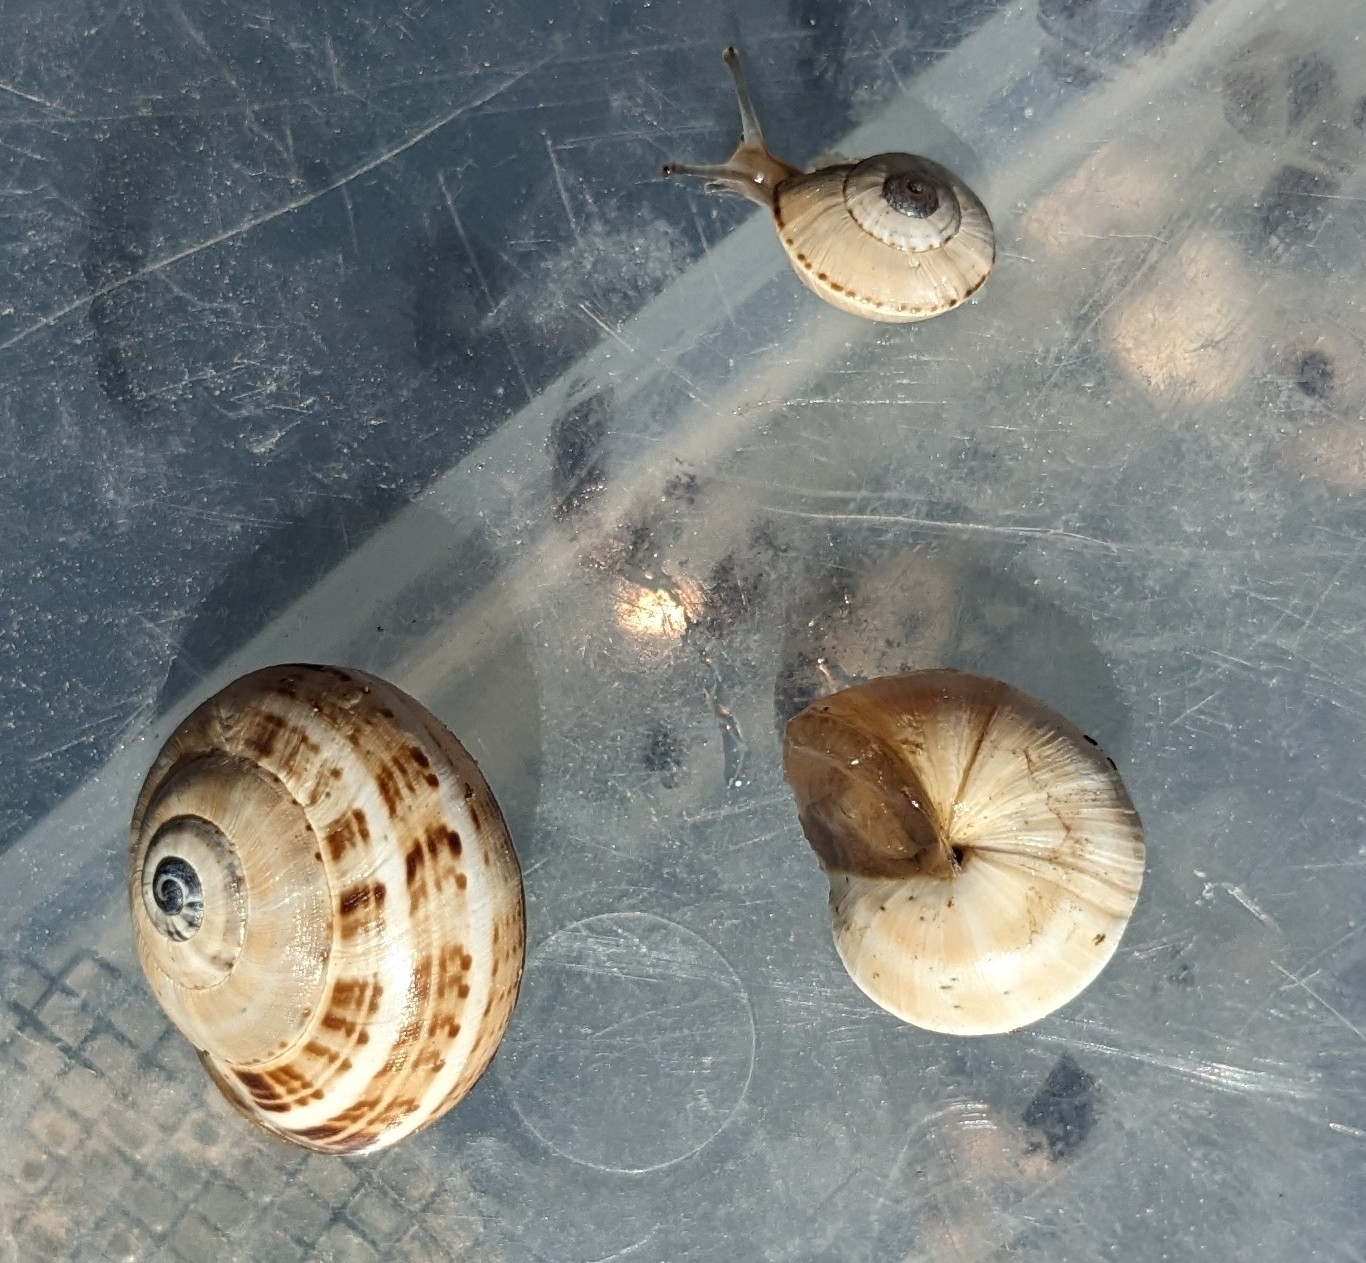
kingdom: Animalia
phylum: Mollusca
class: Gastropoda
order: Stylommatophora
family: Helicidae
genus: Theba
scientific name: Theba pisana
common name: White snail
